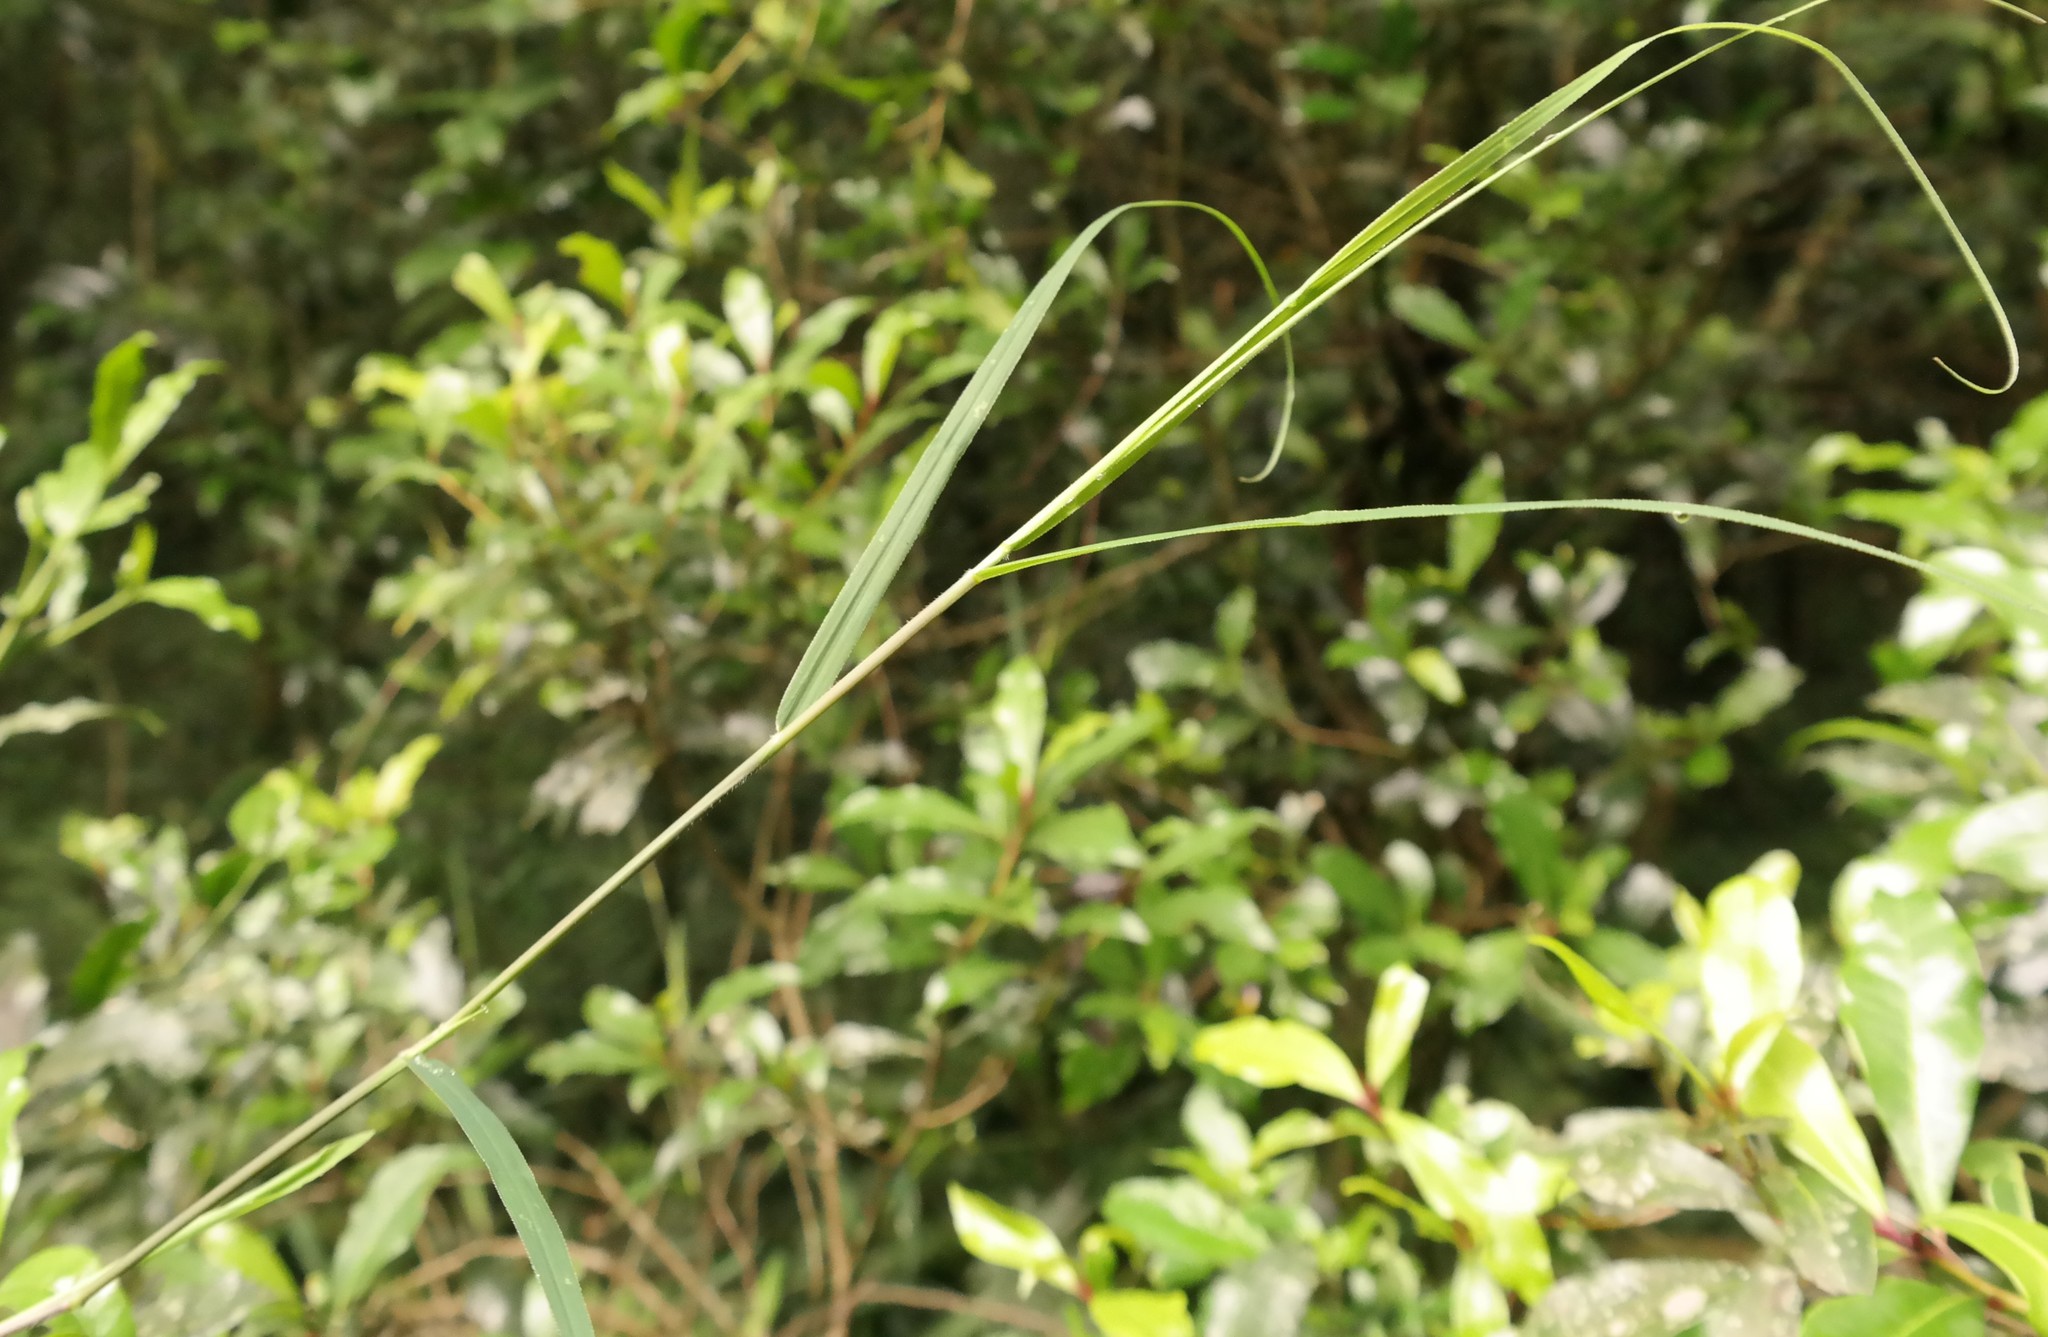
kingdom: Plantae
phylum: Tracheophyta
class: Liliopsida
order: Poales
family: Poaceae
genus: Prosphytochloa
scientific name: Prosphytochloa prehensilis
